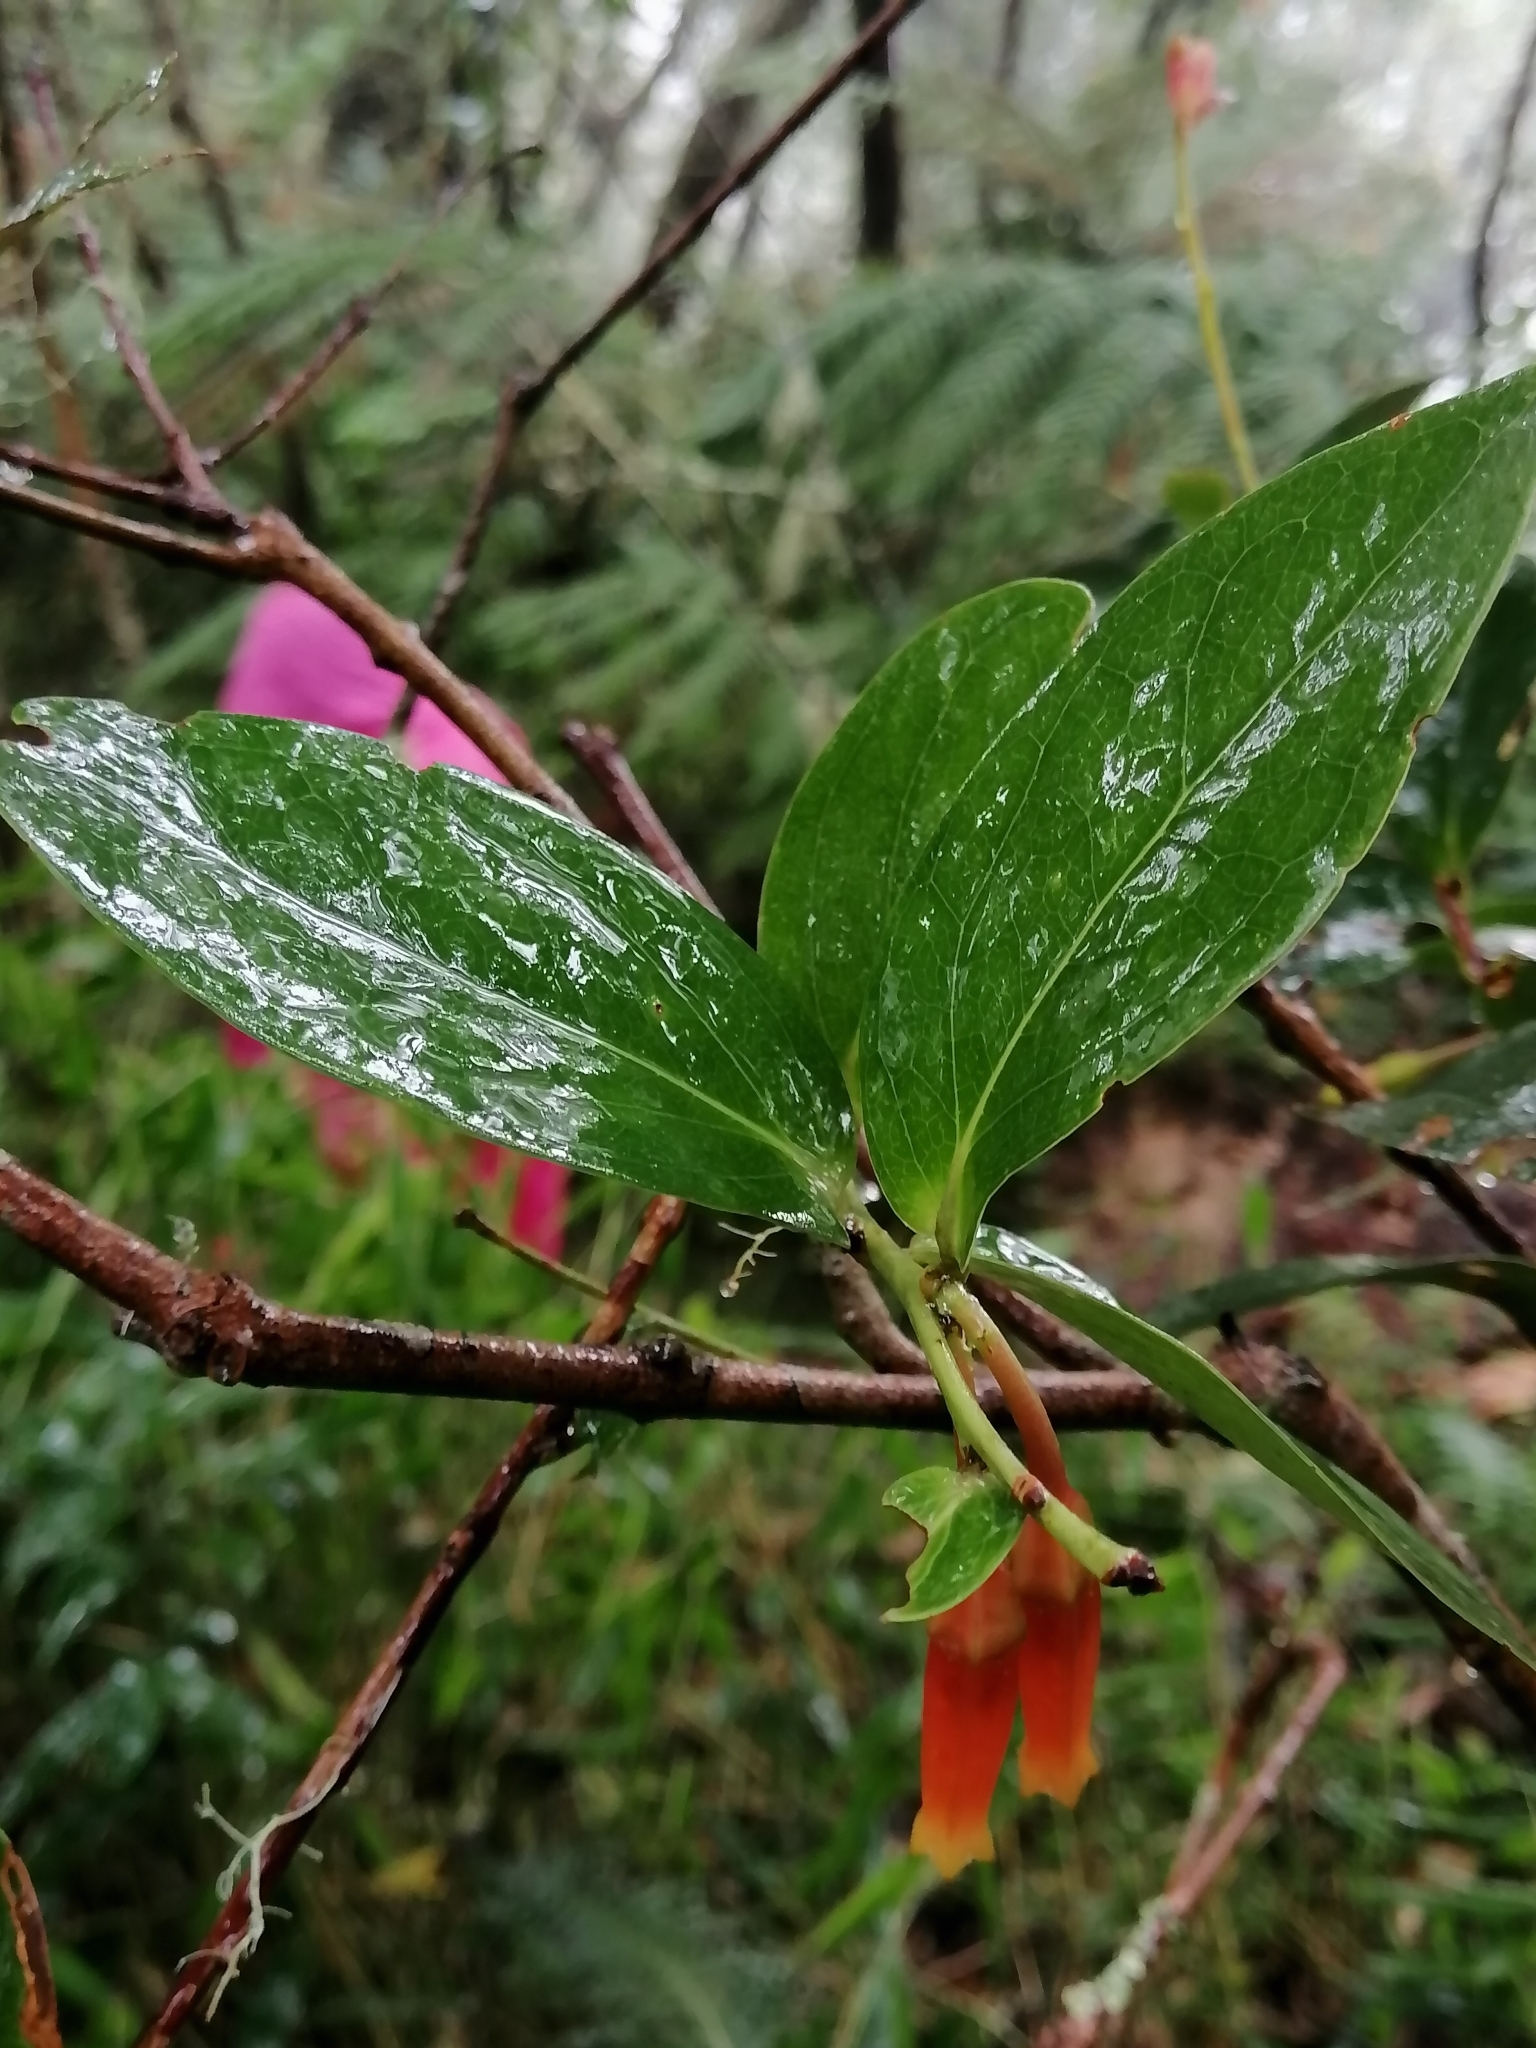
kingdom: Plantae
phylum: Tracheophyta
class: Magnoliopsida
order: Ericales
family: Ericaceae
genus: Macleania
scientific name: Macleania insignis
